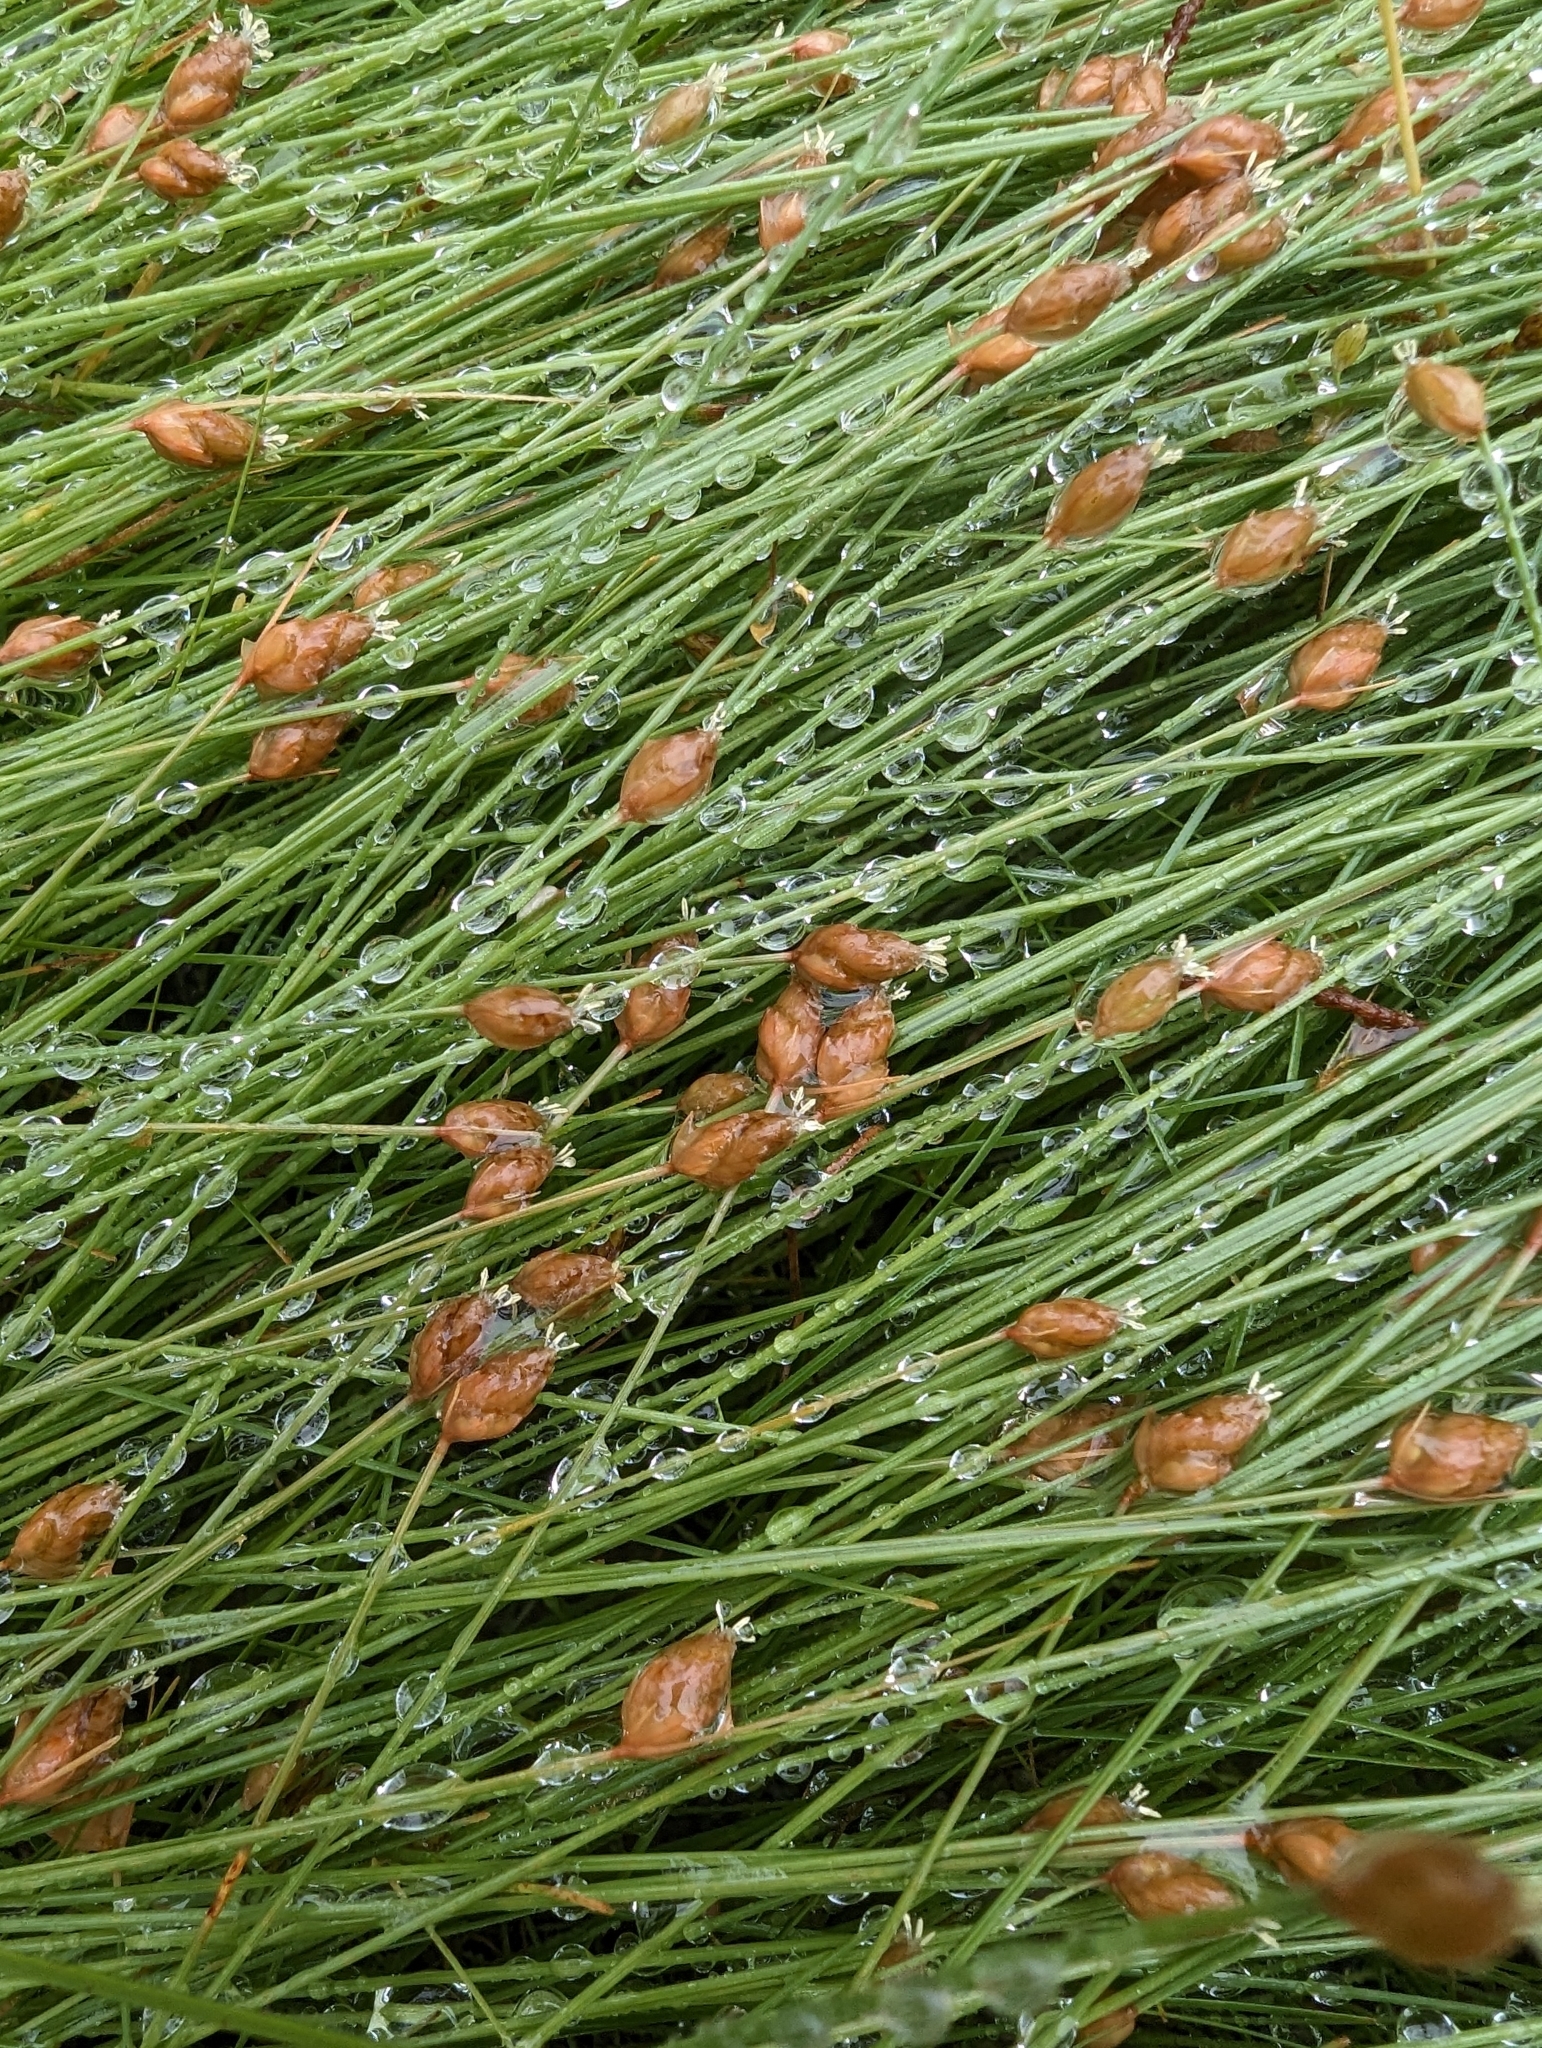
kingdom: Plantae
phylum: Tracheophyta
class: Liliopsida
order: Poales
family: Cyperaceae
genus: Fimbristylis
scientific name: Fimbristylis schoenoides
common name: Ditch fimbry
